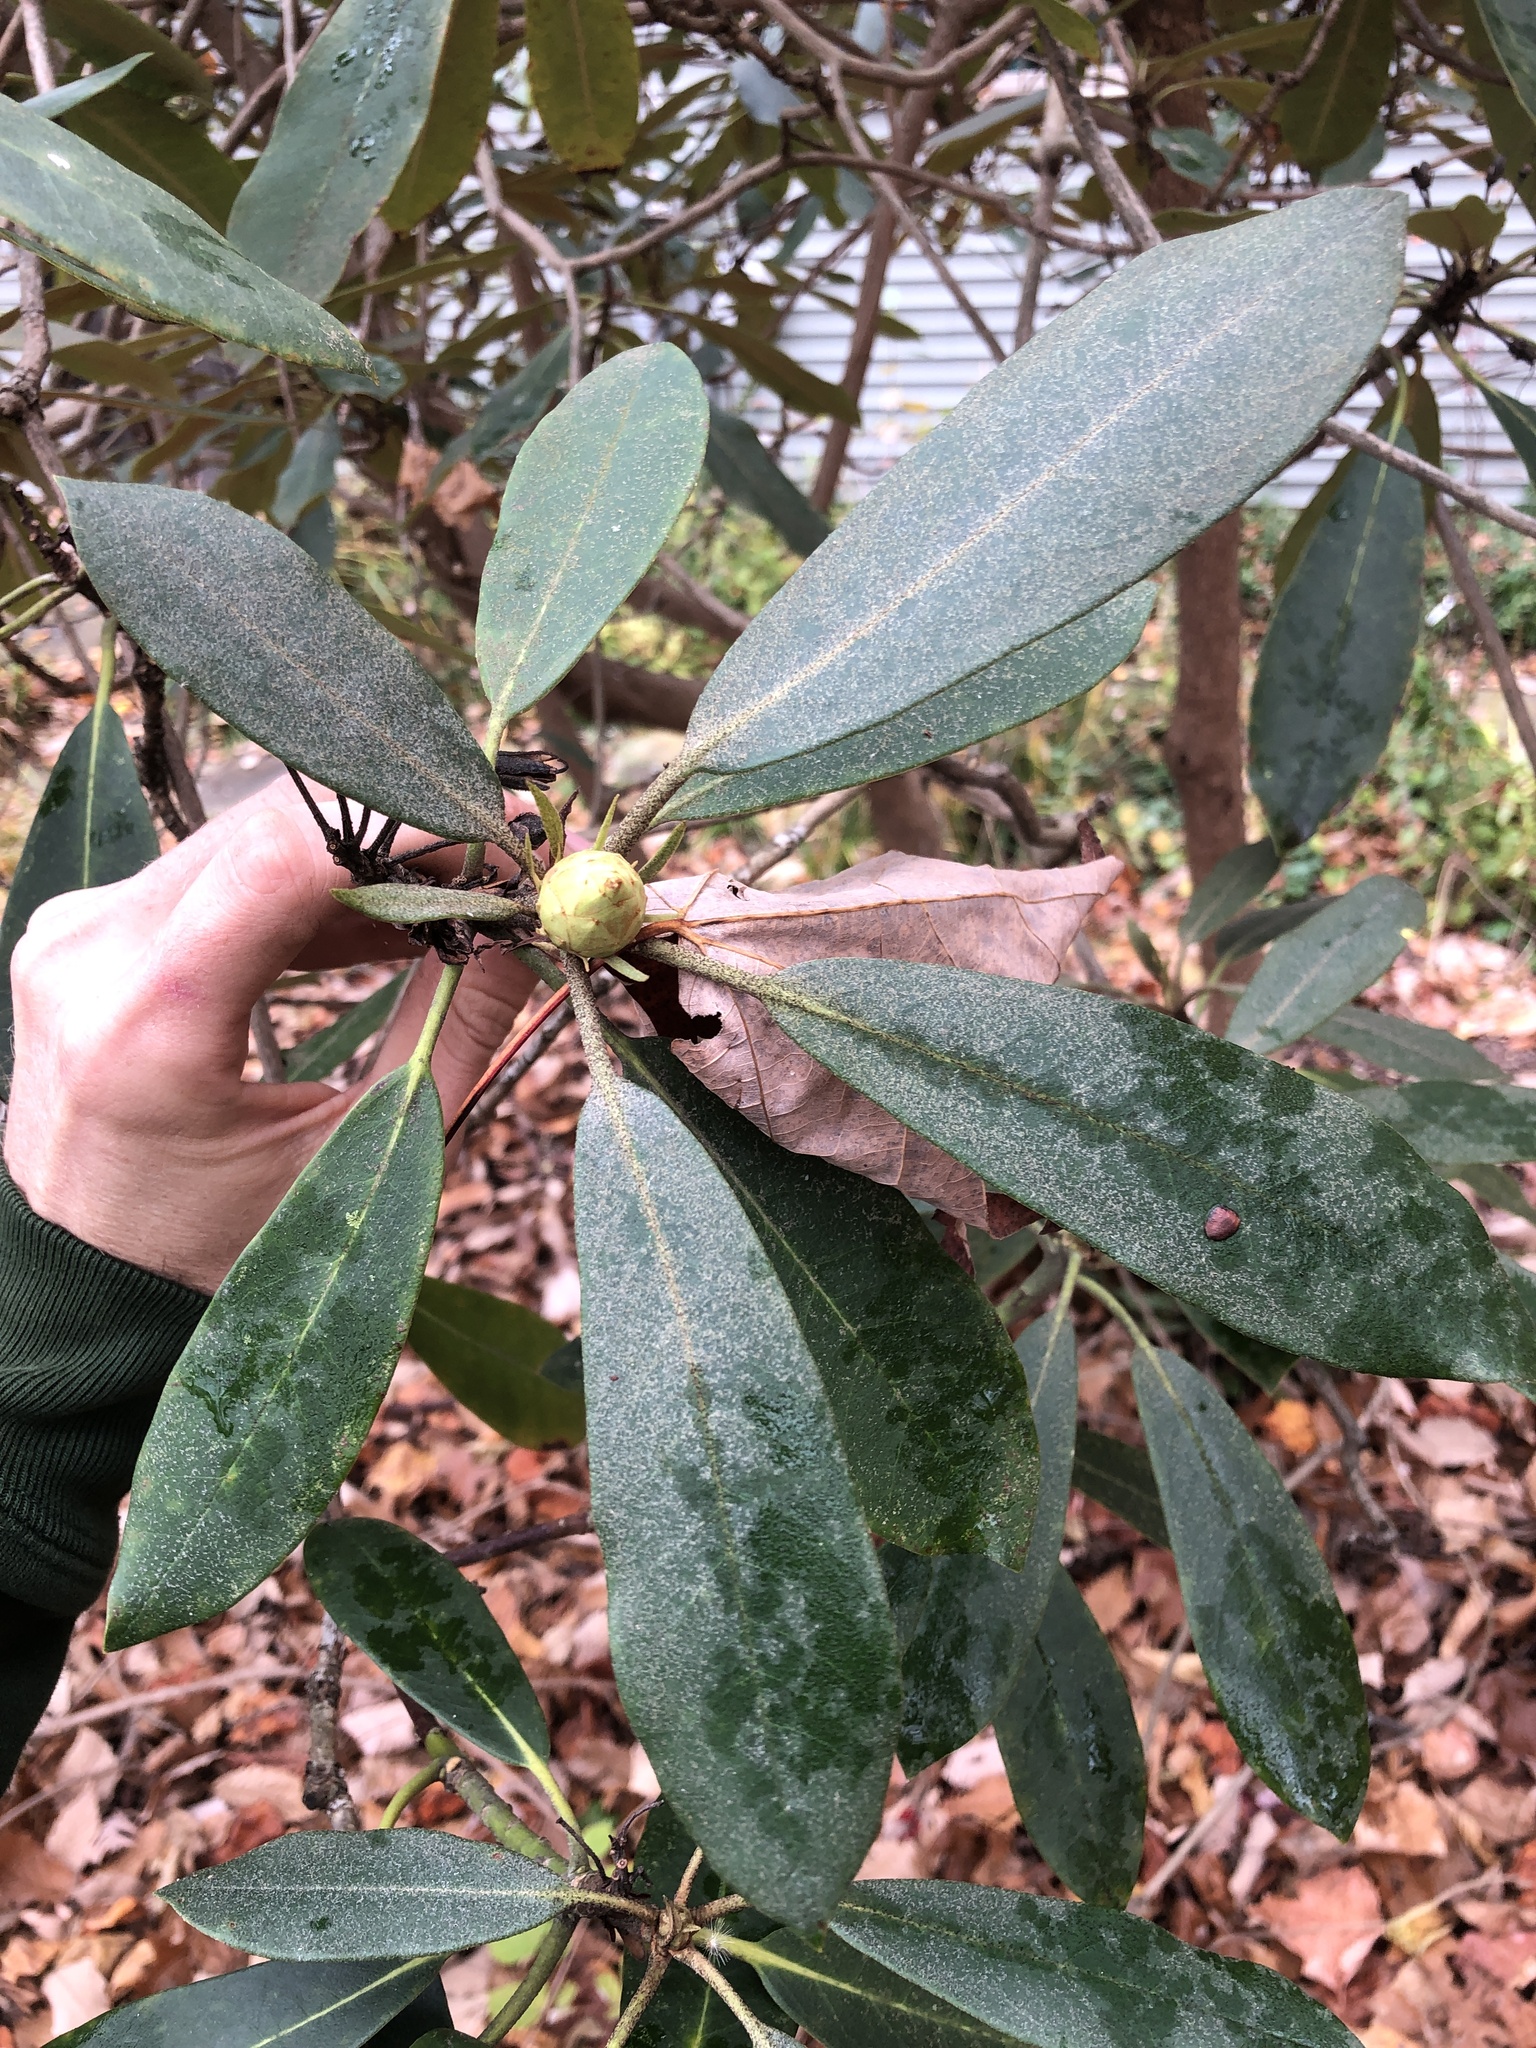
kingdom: Plantae
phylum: Tracheophyta
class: Magnoliopsida
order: Ericales
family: Ericaceae
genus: Rhododendron
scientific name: Rhododendron maximum
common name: Great rhododendron
